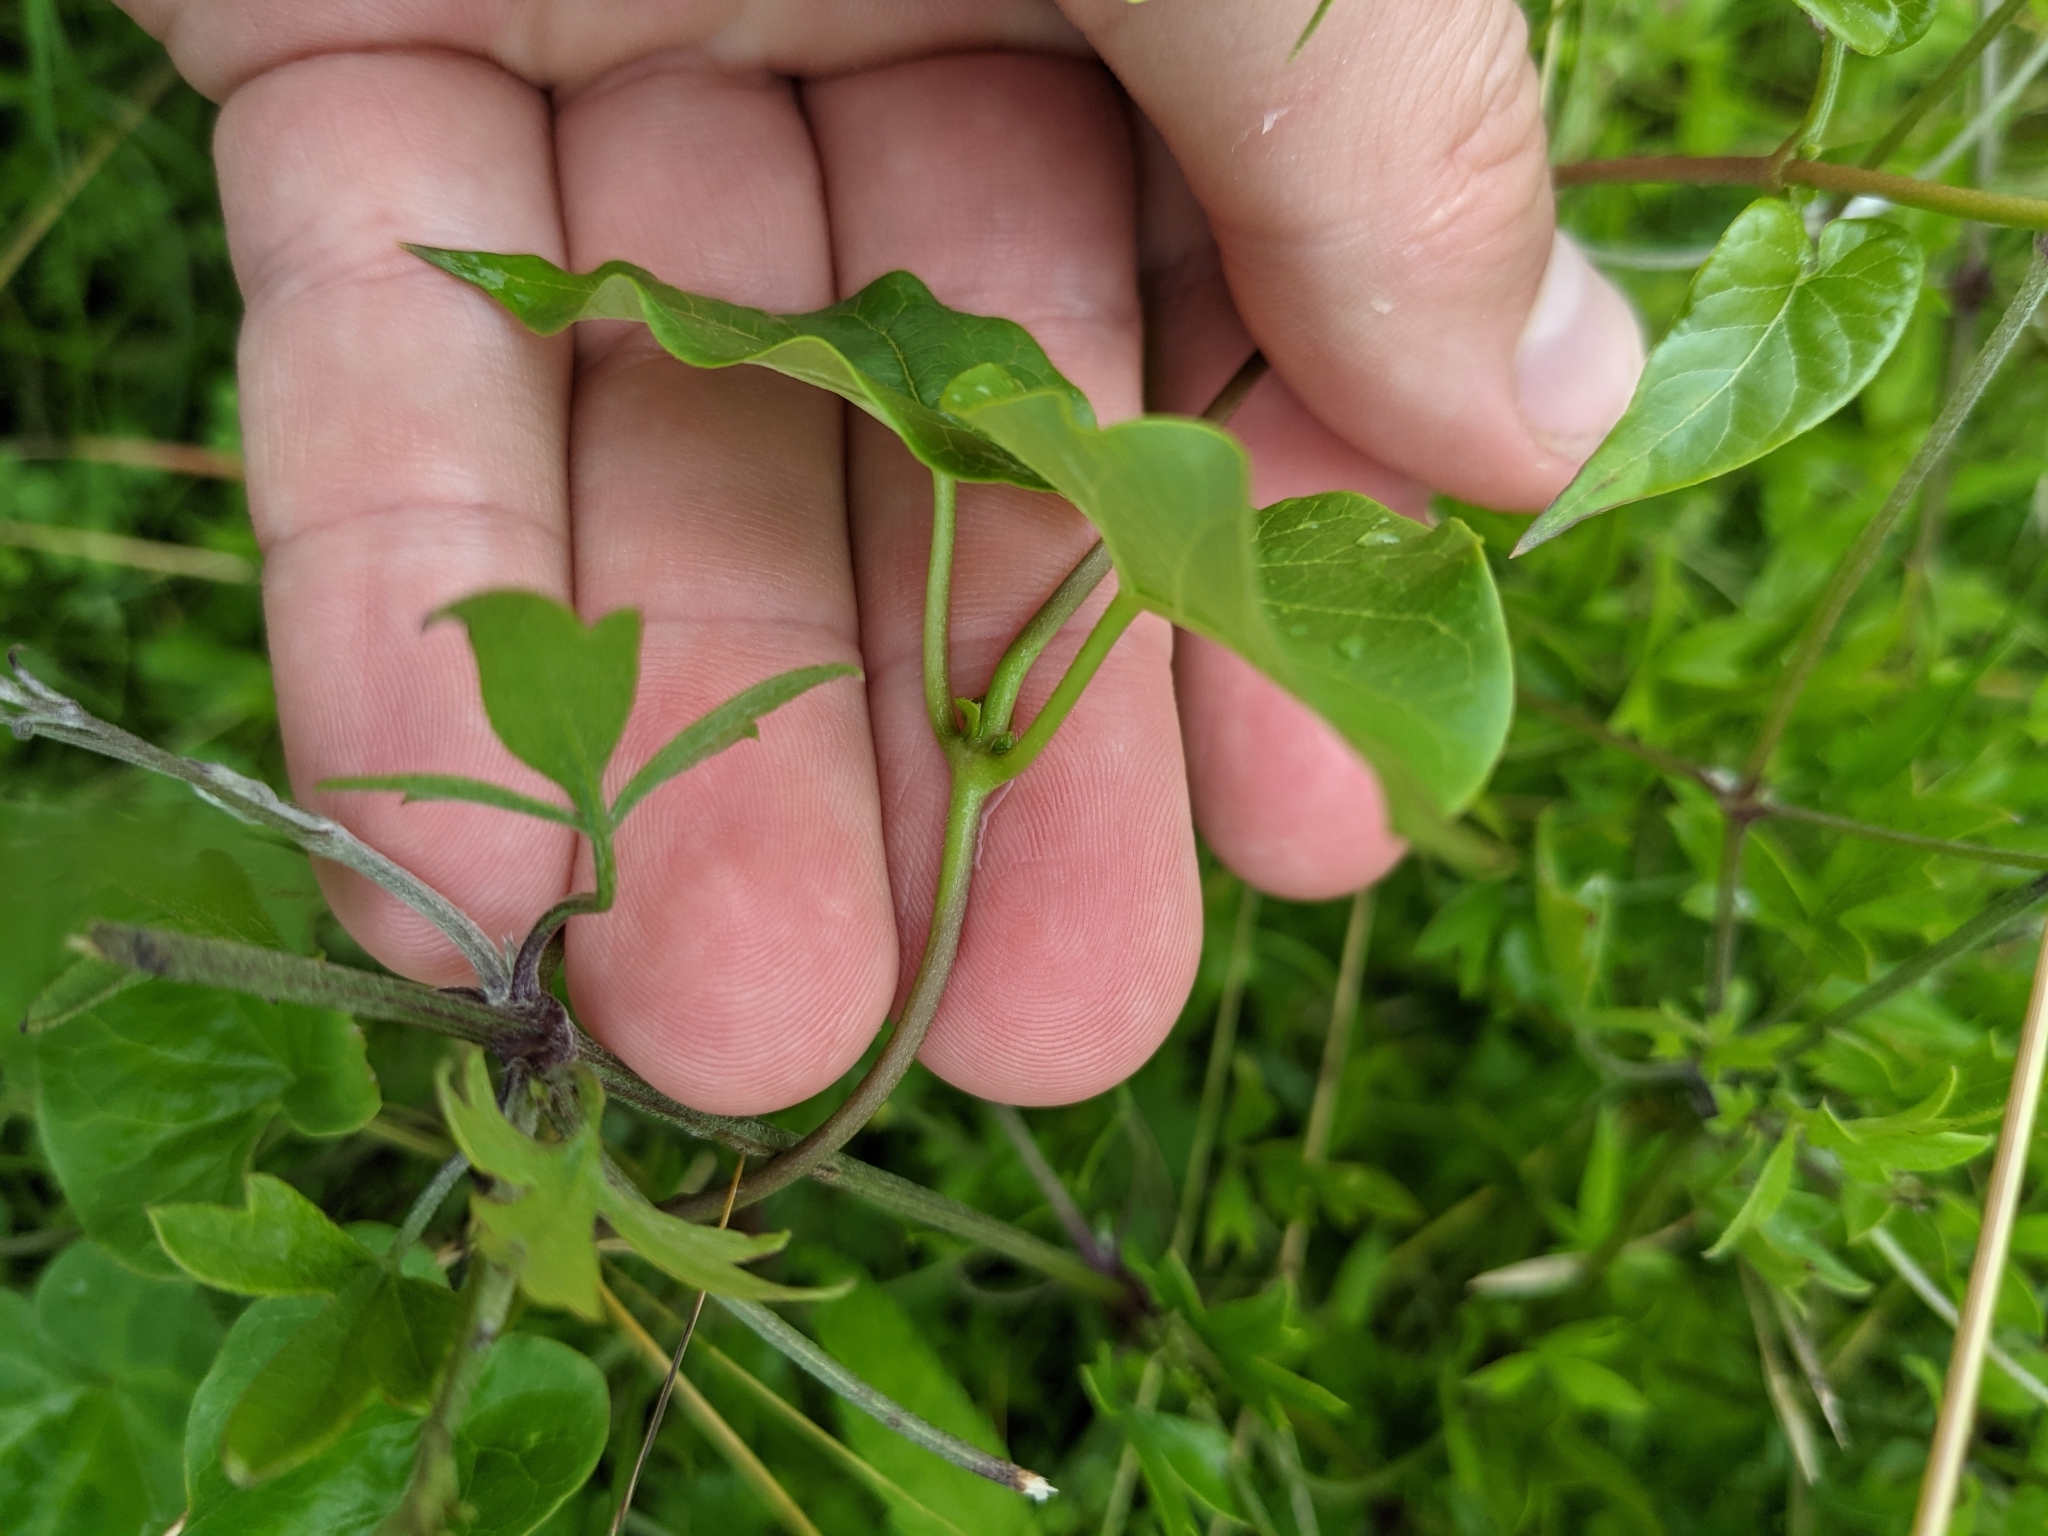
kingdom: Plantae
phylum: Tracheophyta
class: Magnoliopsida
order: Gentianales
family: Apocynaceae
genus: Cynanchum
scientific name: Cynanchum racemosum
